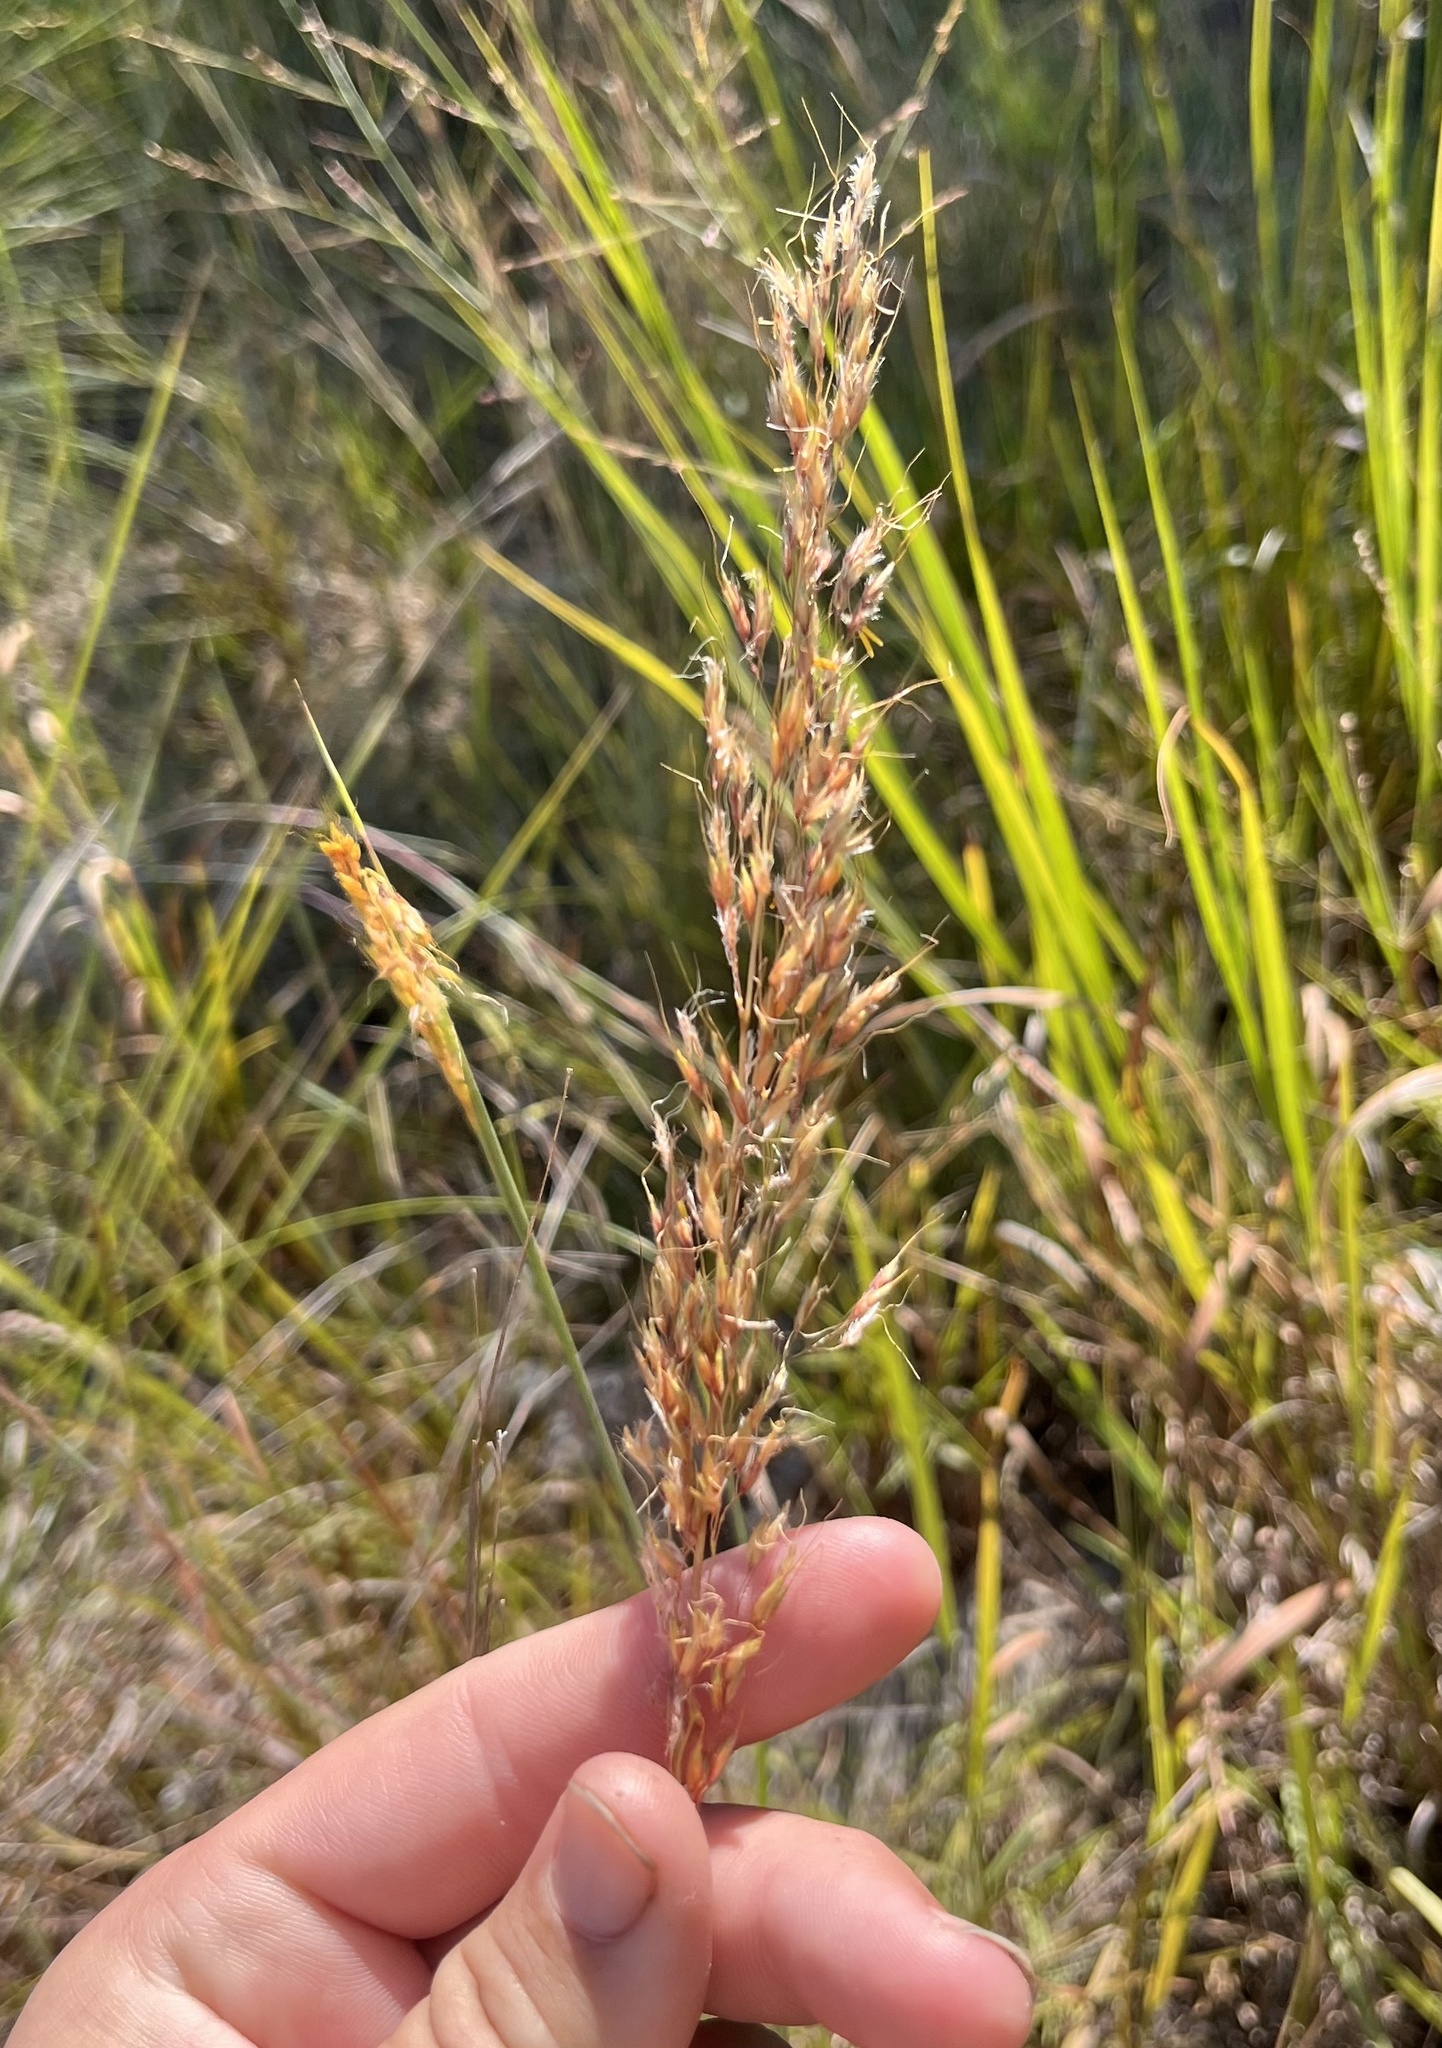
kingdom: Plantae
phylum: Tracheophyta
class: Liliopsida
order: Poales
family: Poaceae
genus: Sorghastrum
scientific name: Sorghastrum nutans
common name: Indian grass
